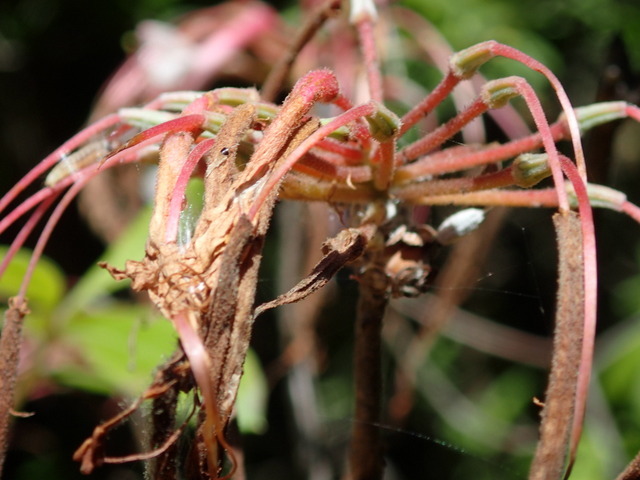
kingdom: Plantae
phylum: Tracheophyta
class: Magnoliopsida
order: Ericales
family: Ericaceae
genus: Rhododendron
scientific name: Rhododendron canescens
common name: Mountain azalea
